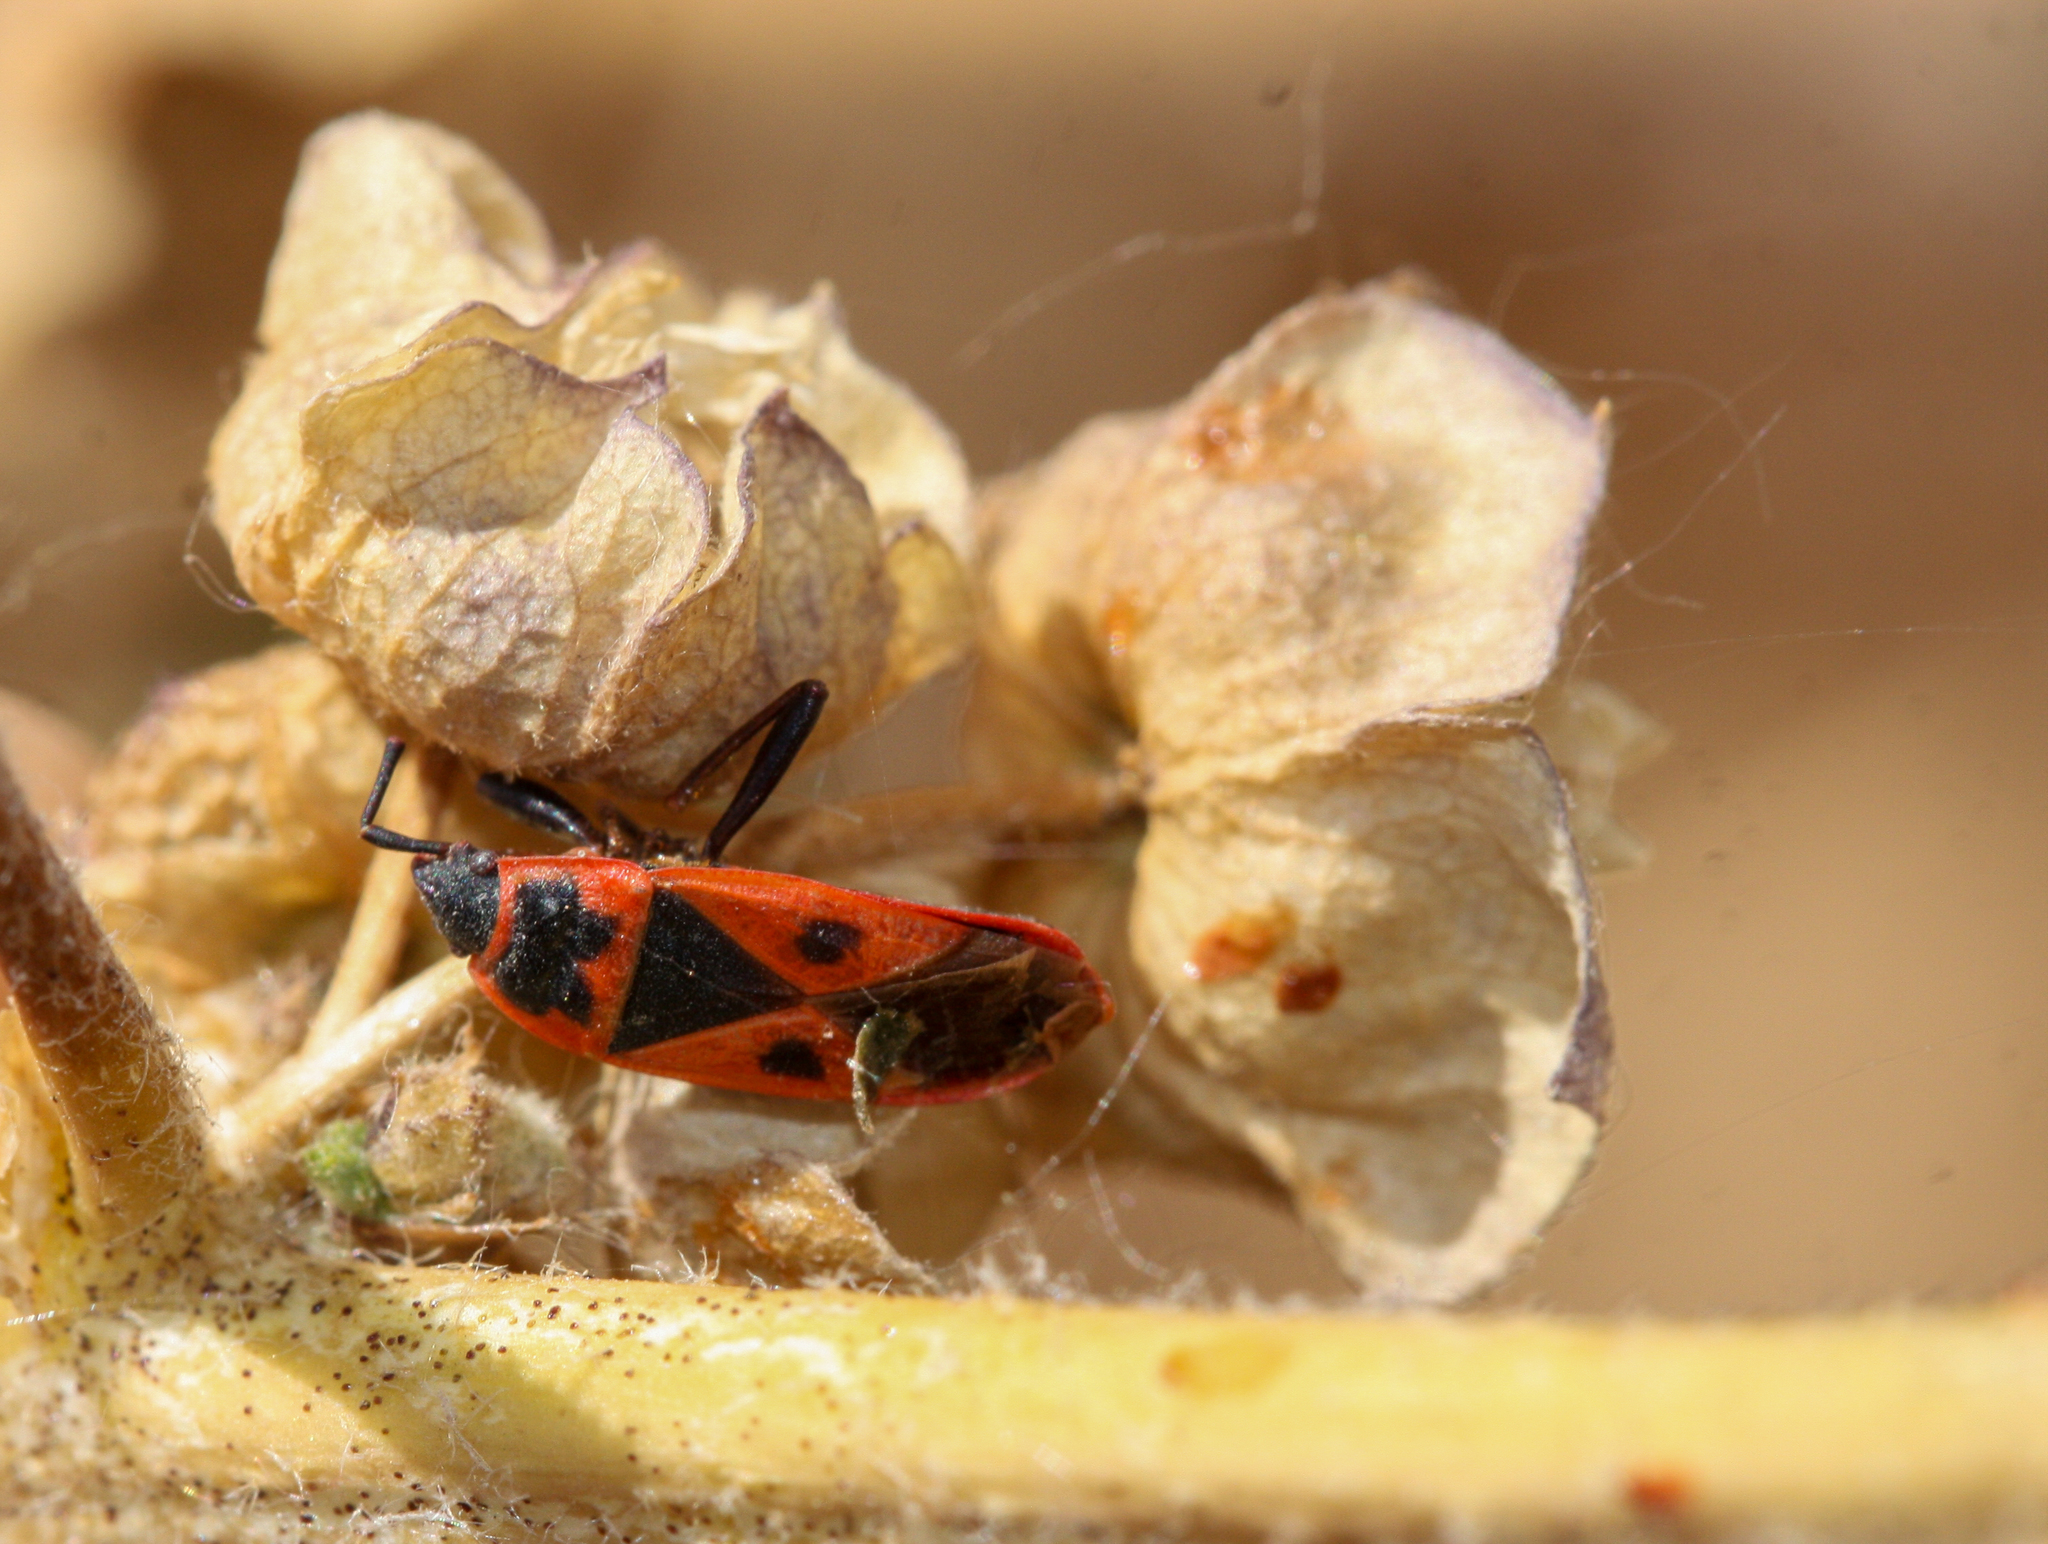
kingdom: Animalia
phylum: Arthropoda
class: Insecta
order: Hemiptera
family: Pyrrhocoridae
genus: Scantius
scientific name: Scantius aegyptius
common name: Red bug
